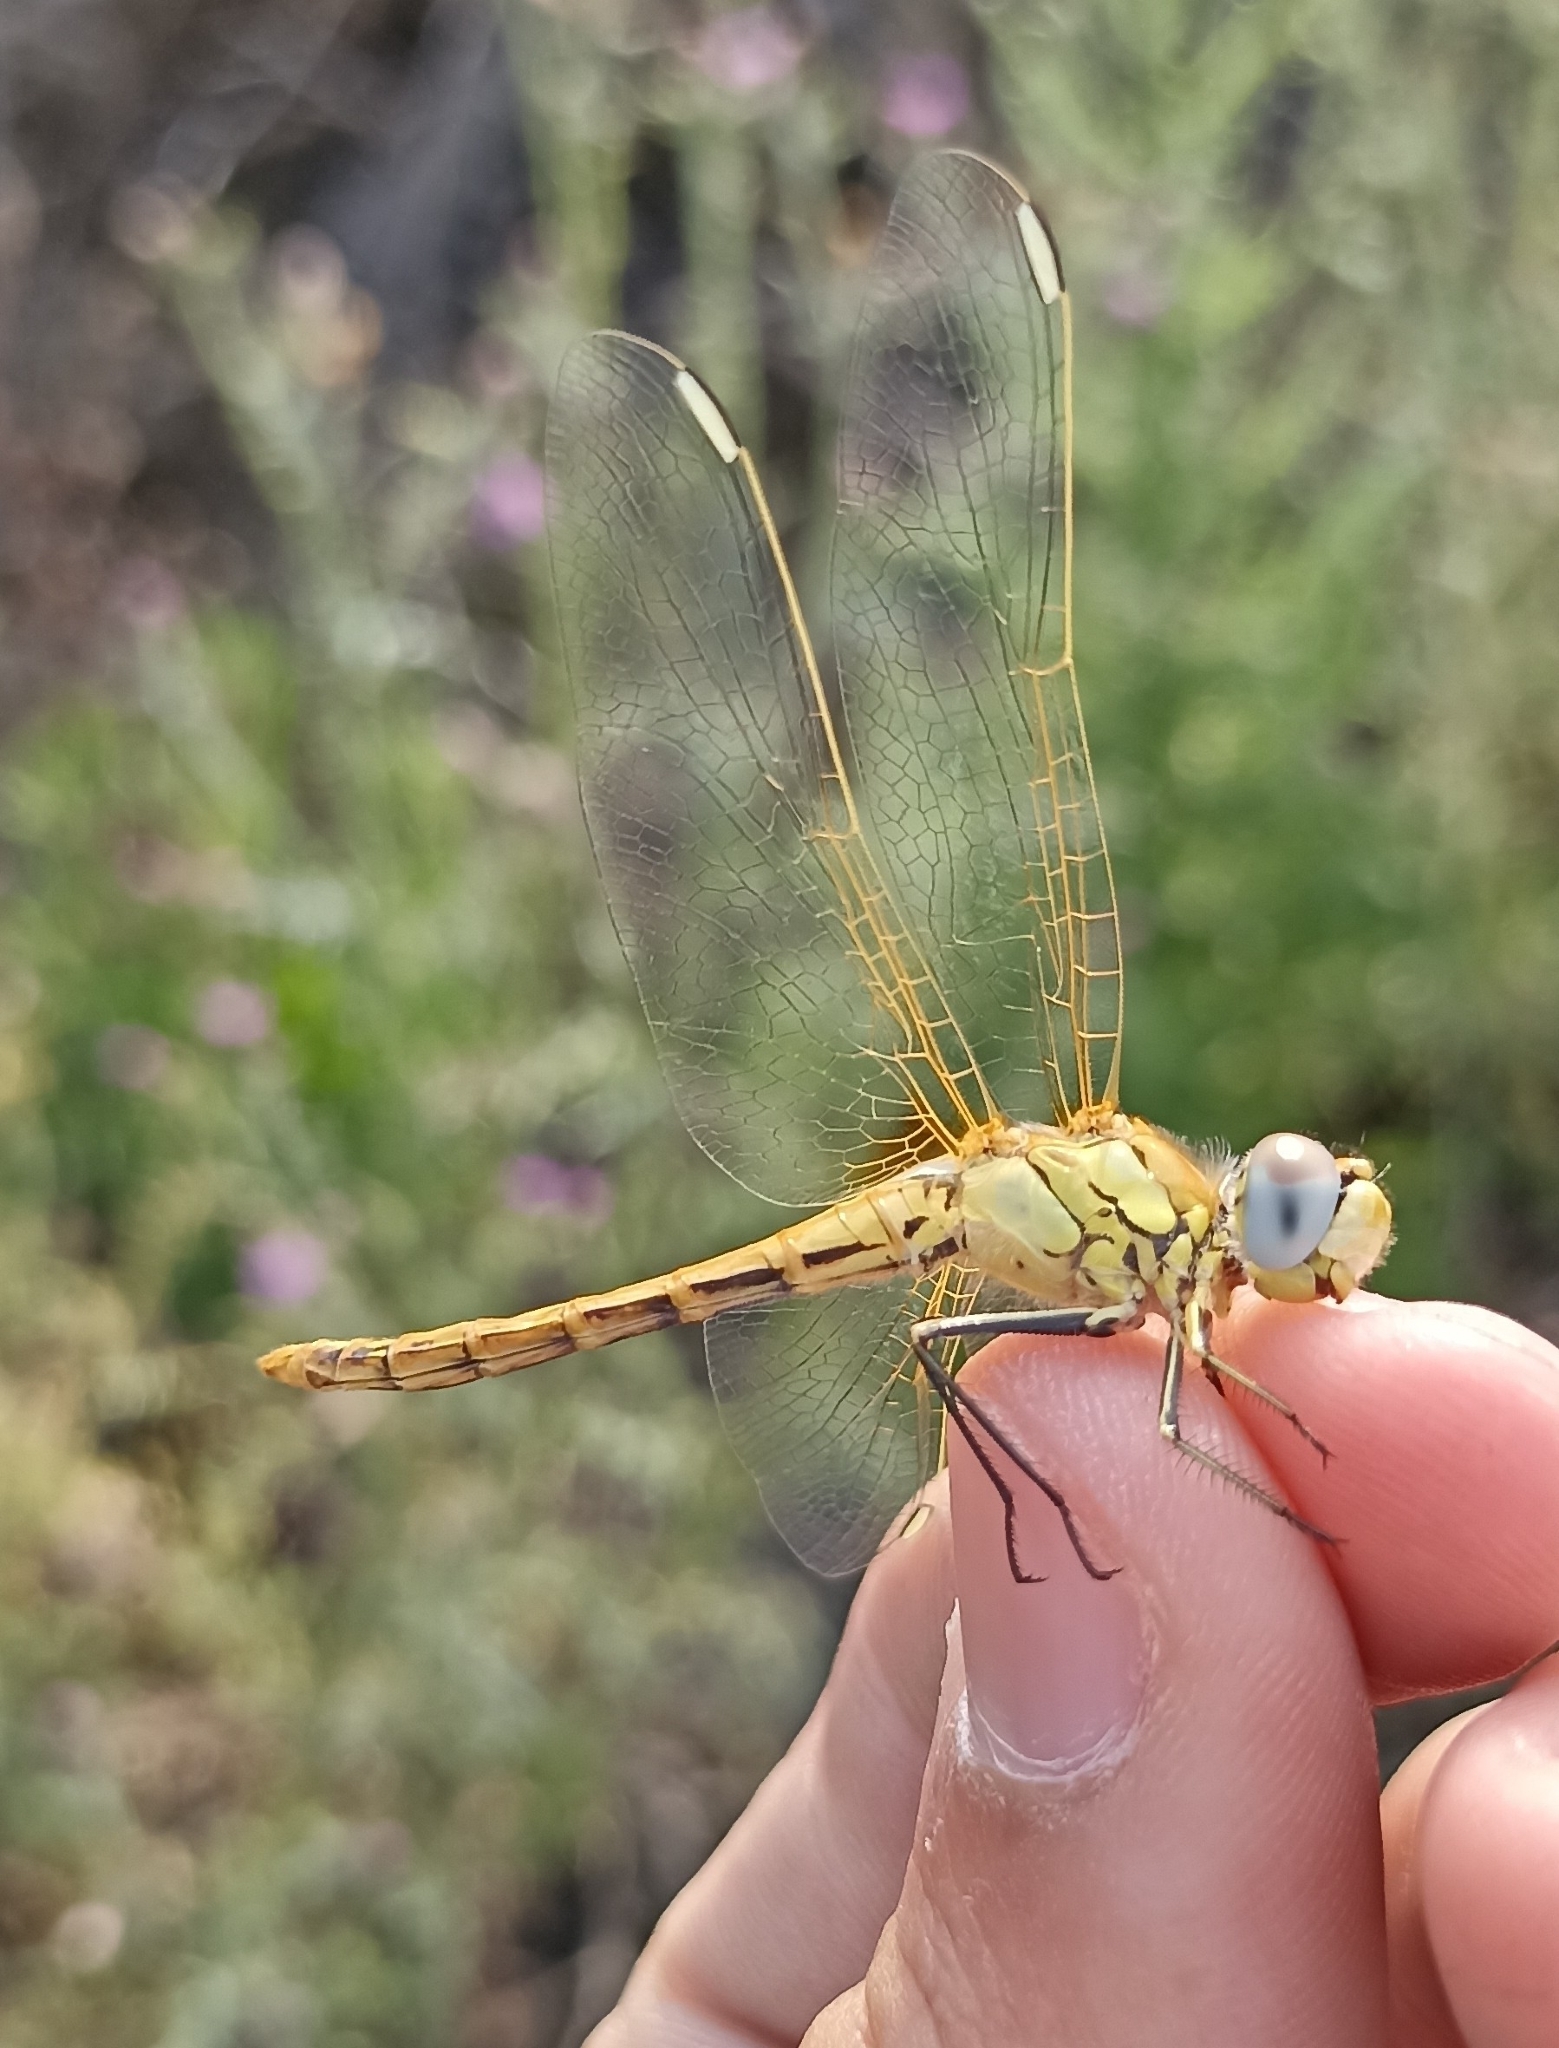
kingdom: Animalia
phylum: Arthropoda
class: Insecta
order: Odonata
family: Libellulidae
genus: Sympetrum
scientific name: Sympetrum fonscolombii
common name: Red-veined darter
